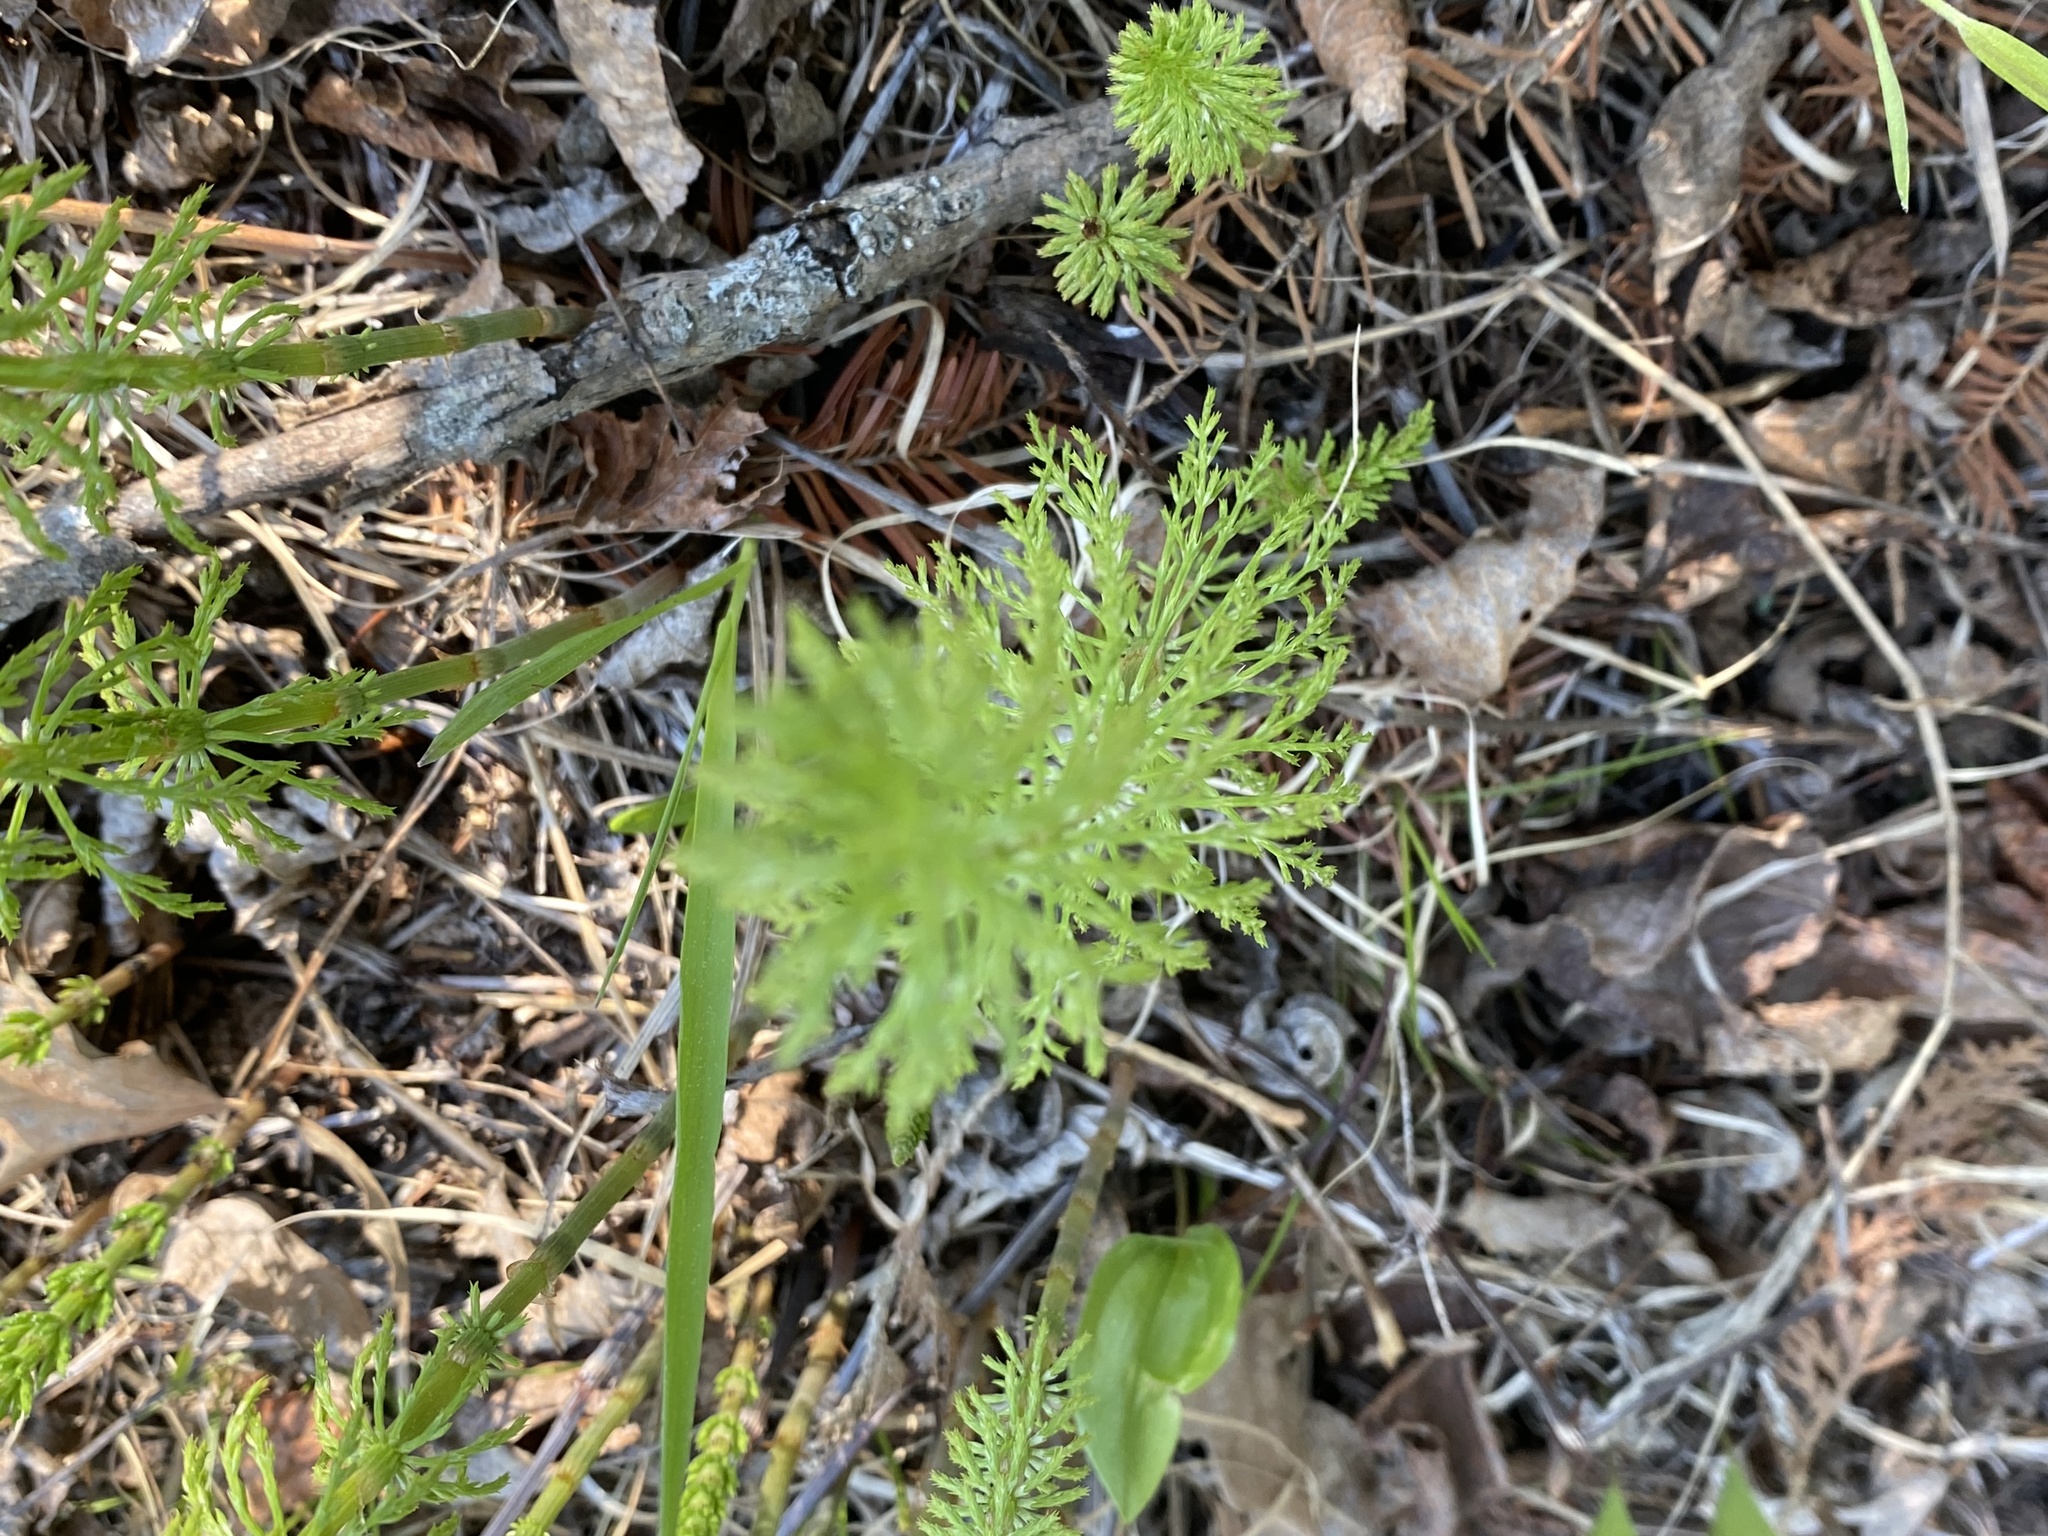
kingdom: Plantae
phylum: Tracheophyta
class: Polypodiopsida
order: Equisetales
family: Equisetaceae
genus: Equisetum
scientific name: Equisetum sylvaticum
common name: Wood horsetail
